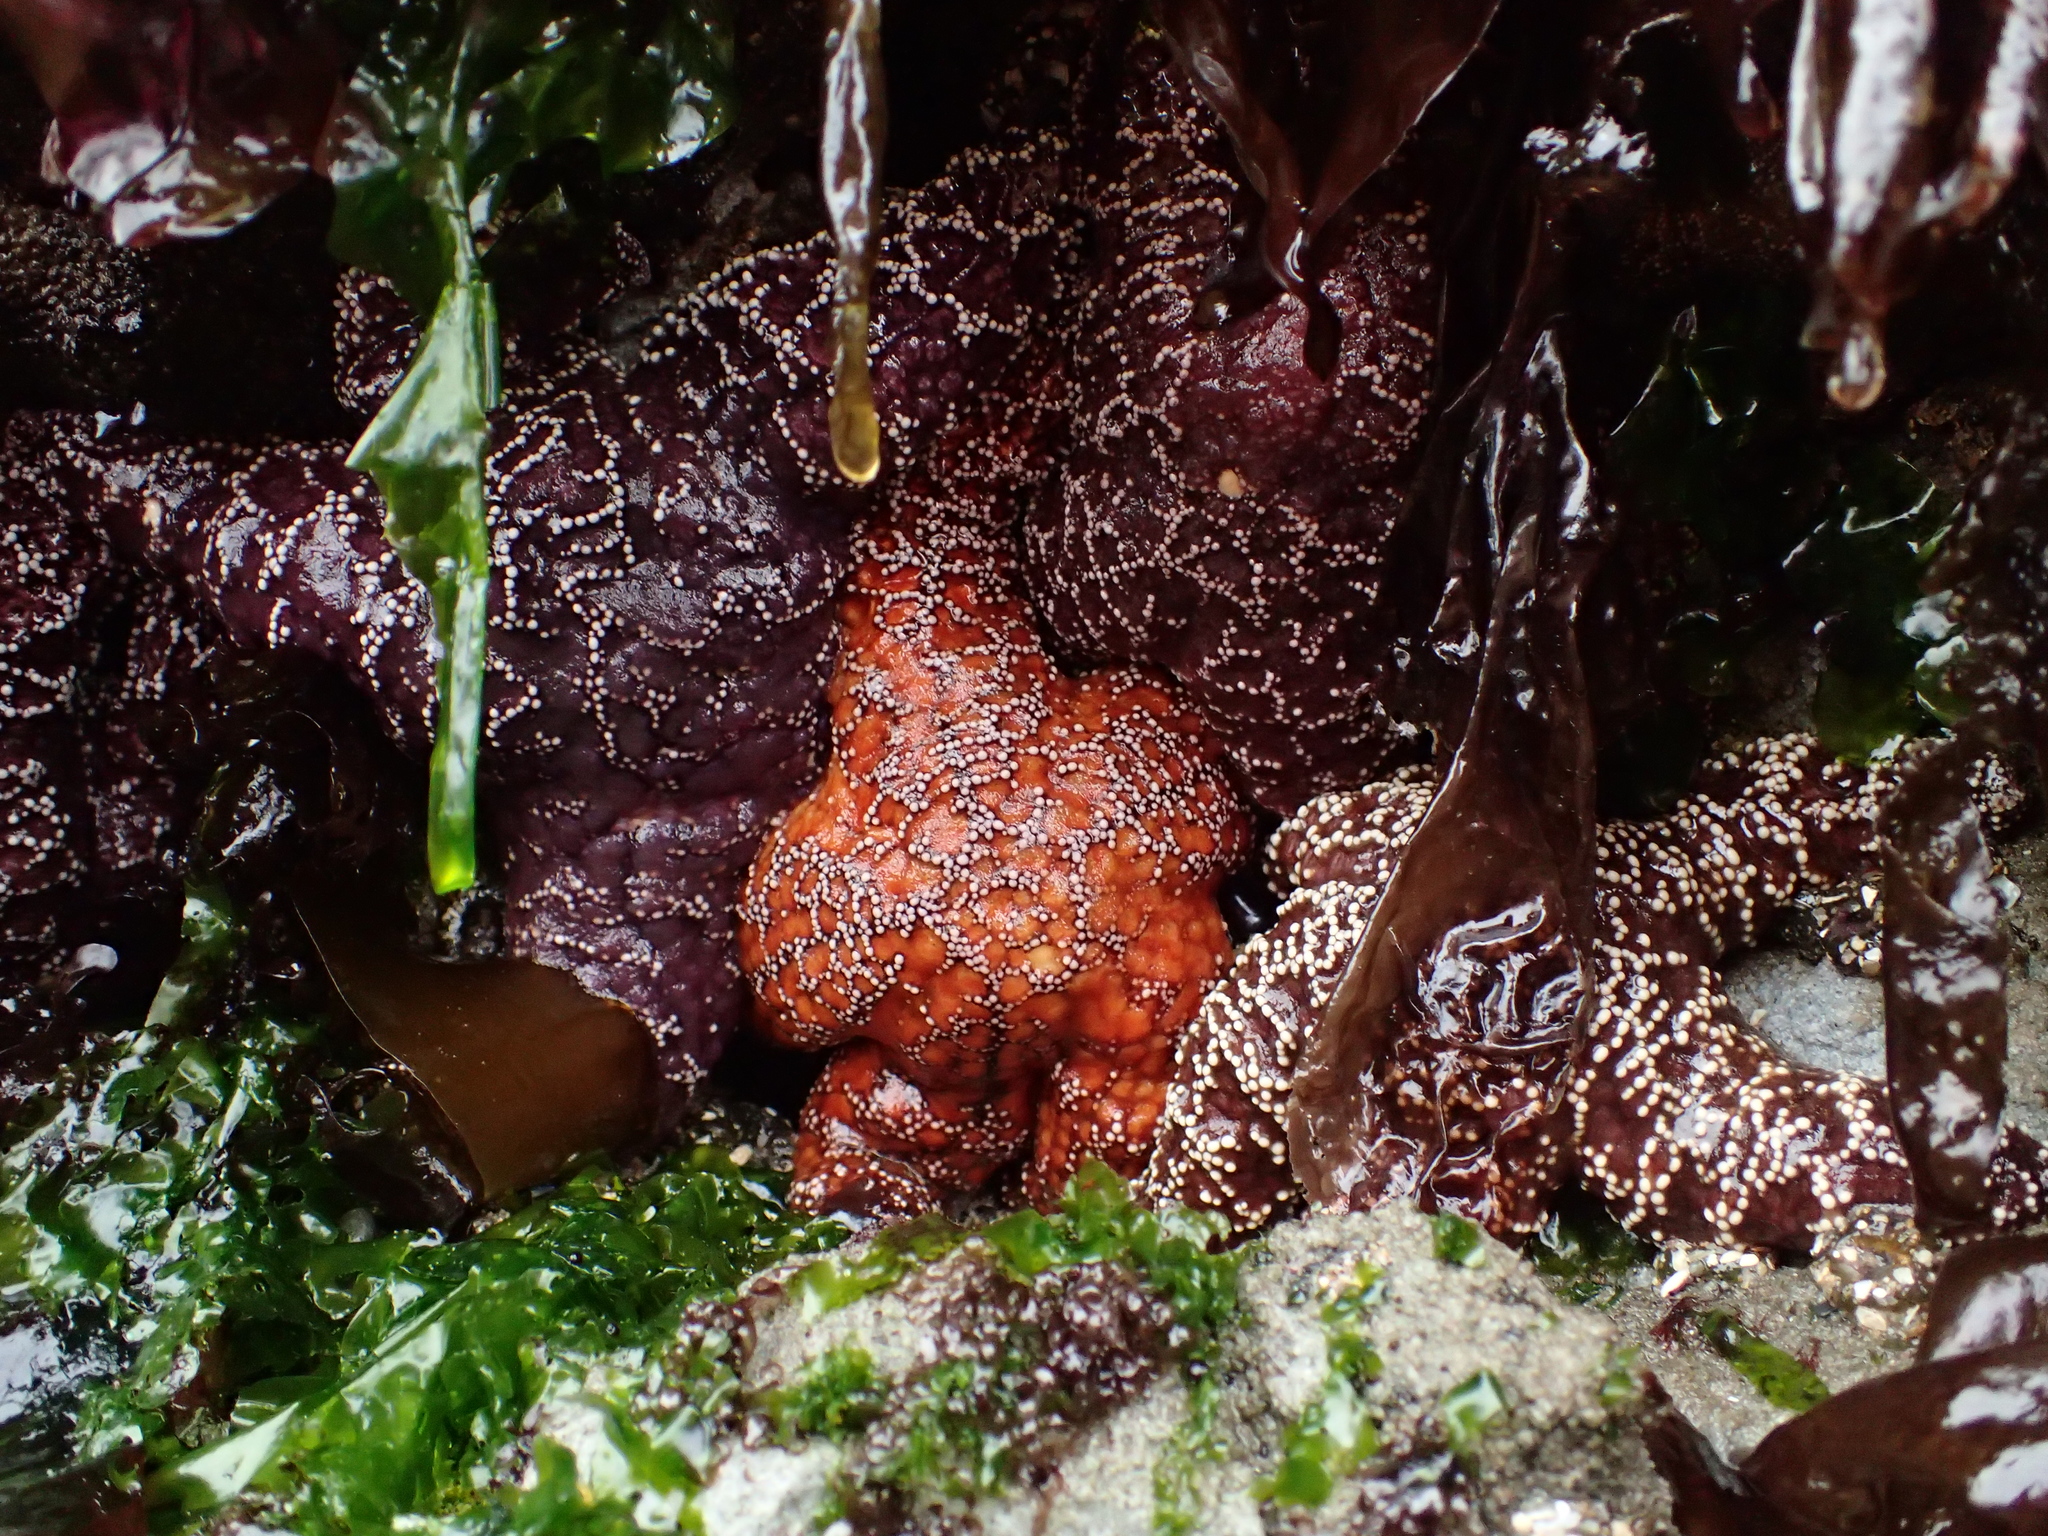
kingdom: Animalia
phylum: Echinodermata
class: Asteroidea
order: Forcipulatida
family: Asteriidae
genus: Pisaster
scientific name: Pisaster ochraceus
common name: Ochre stars
